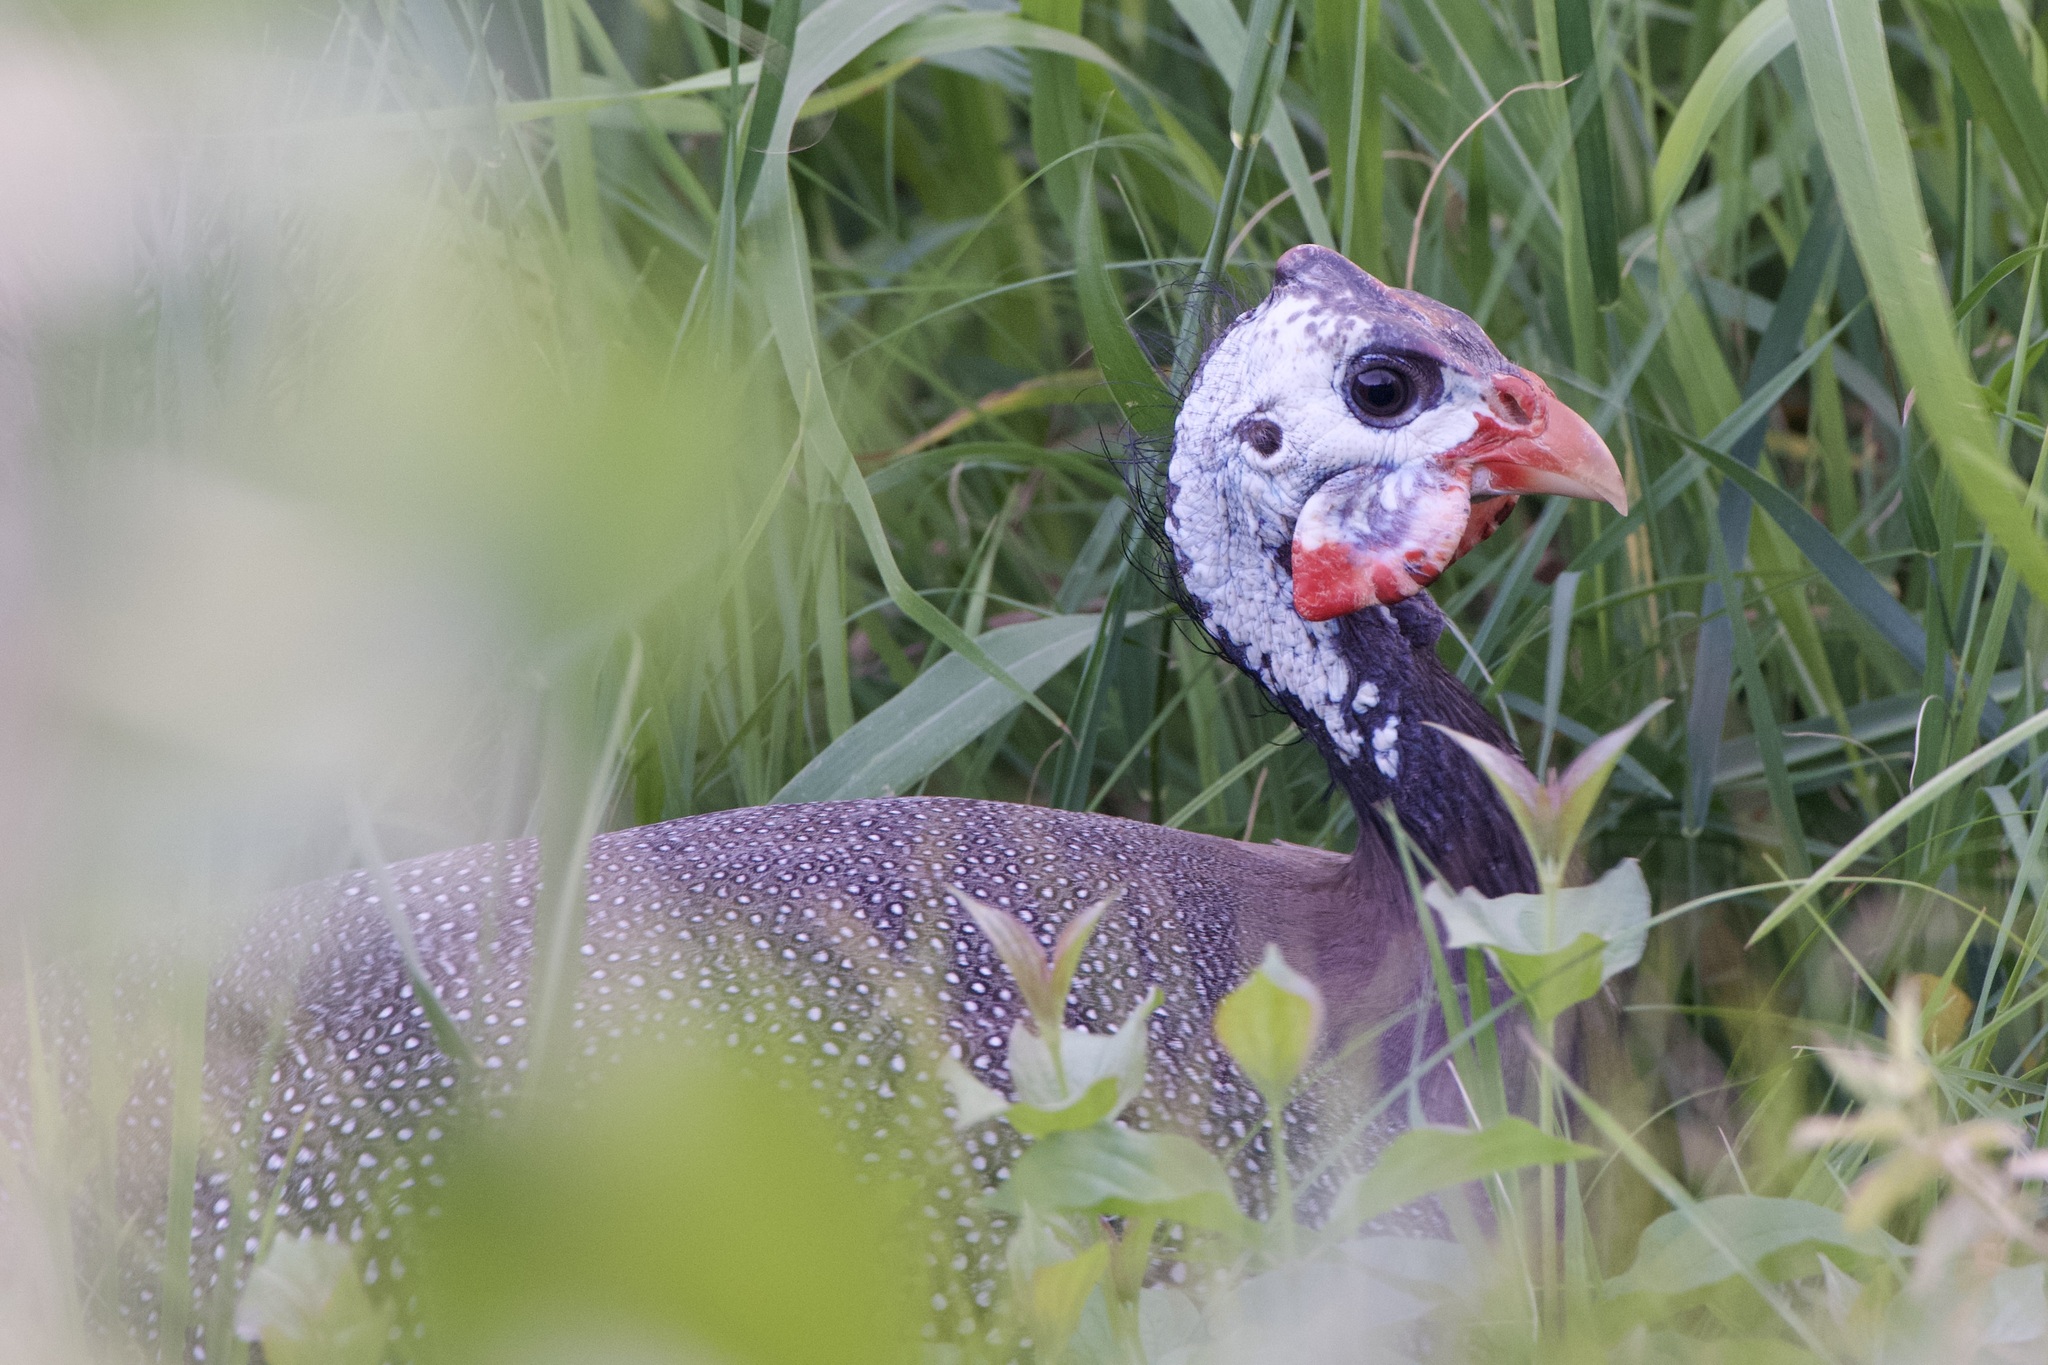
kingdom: Animalia
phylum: Chordata
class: Aves
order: Galliformes
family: Numididae
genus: Numida
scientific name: Numida meleagris
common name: Helmeted guineafowl
